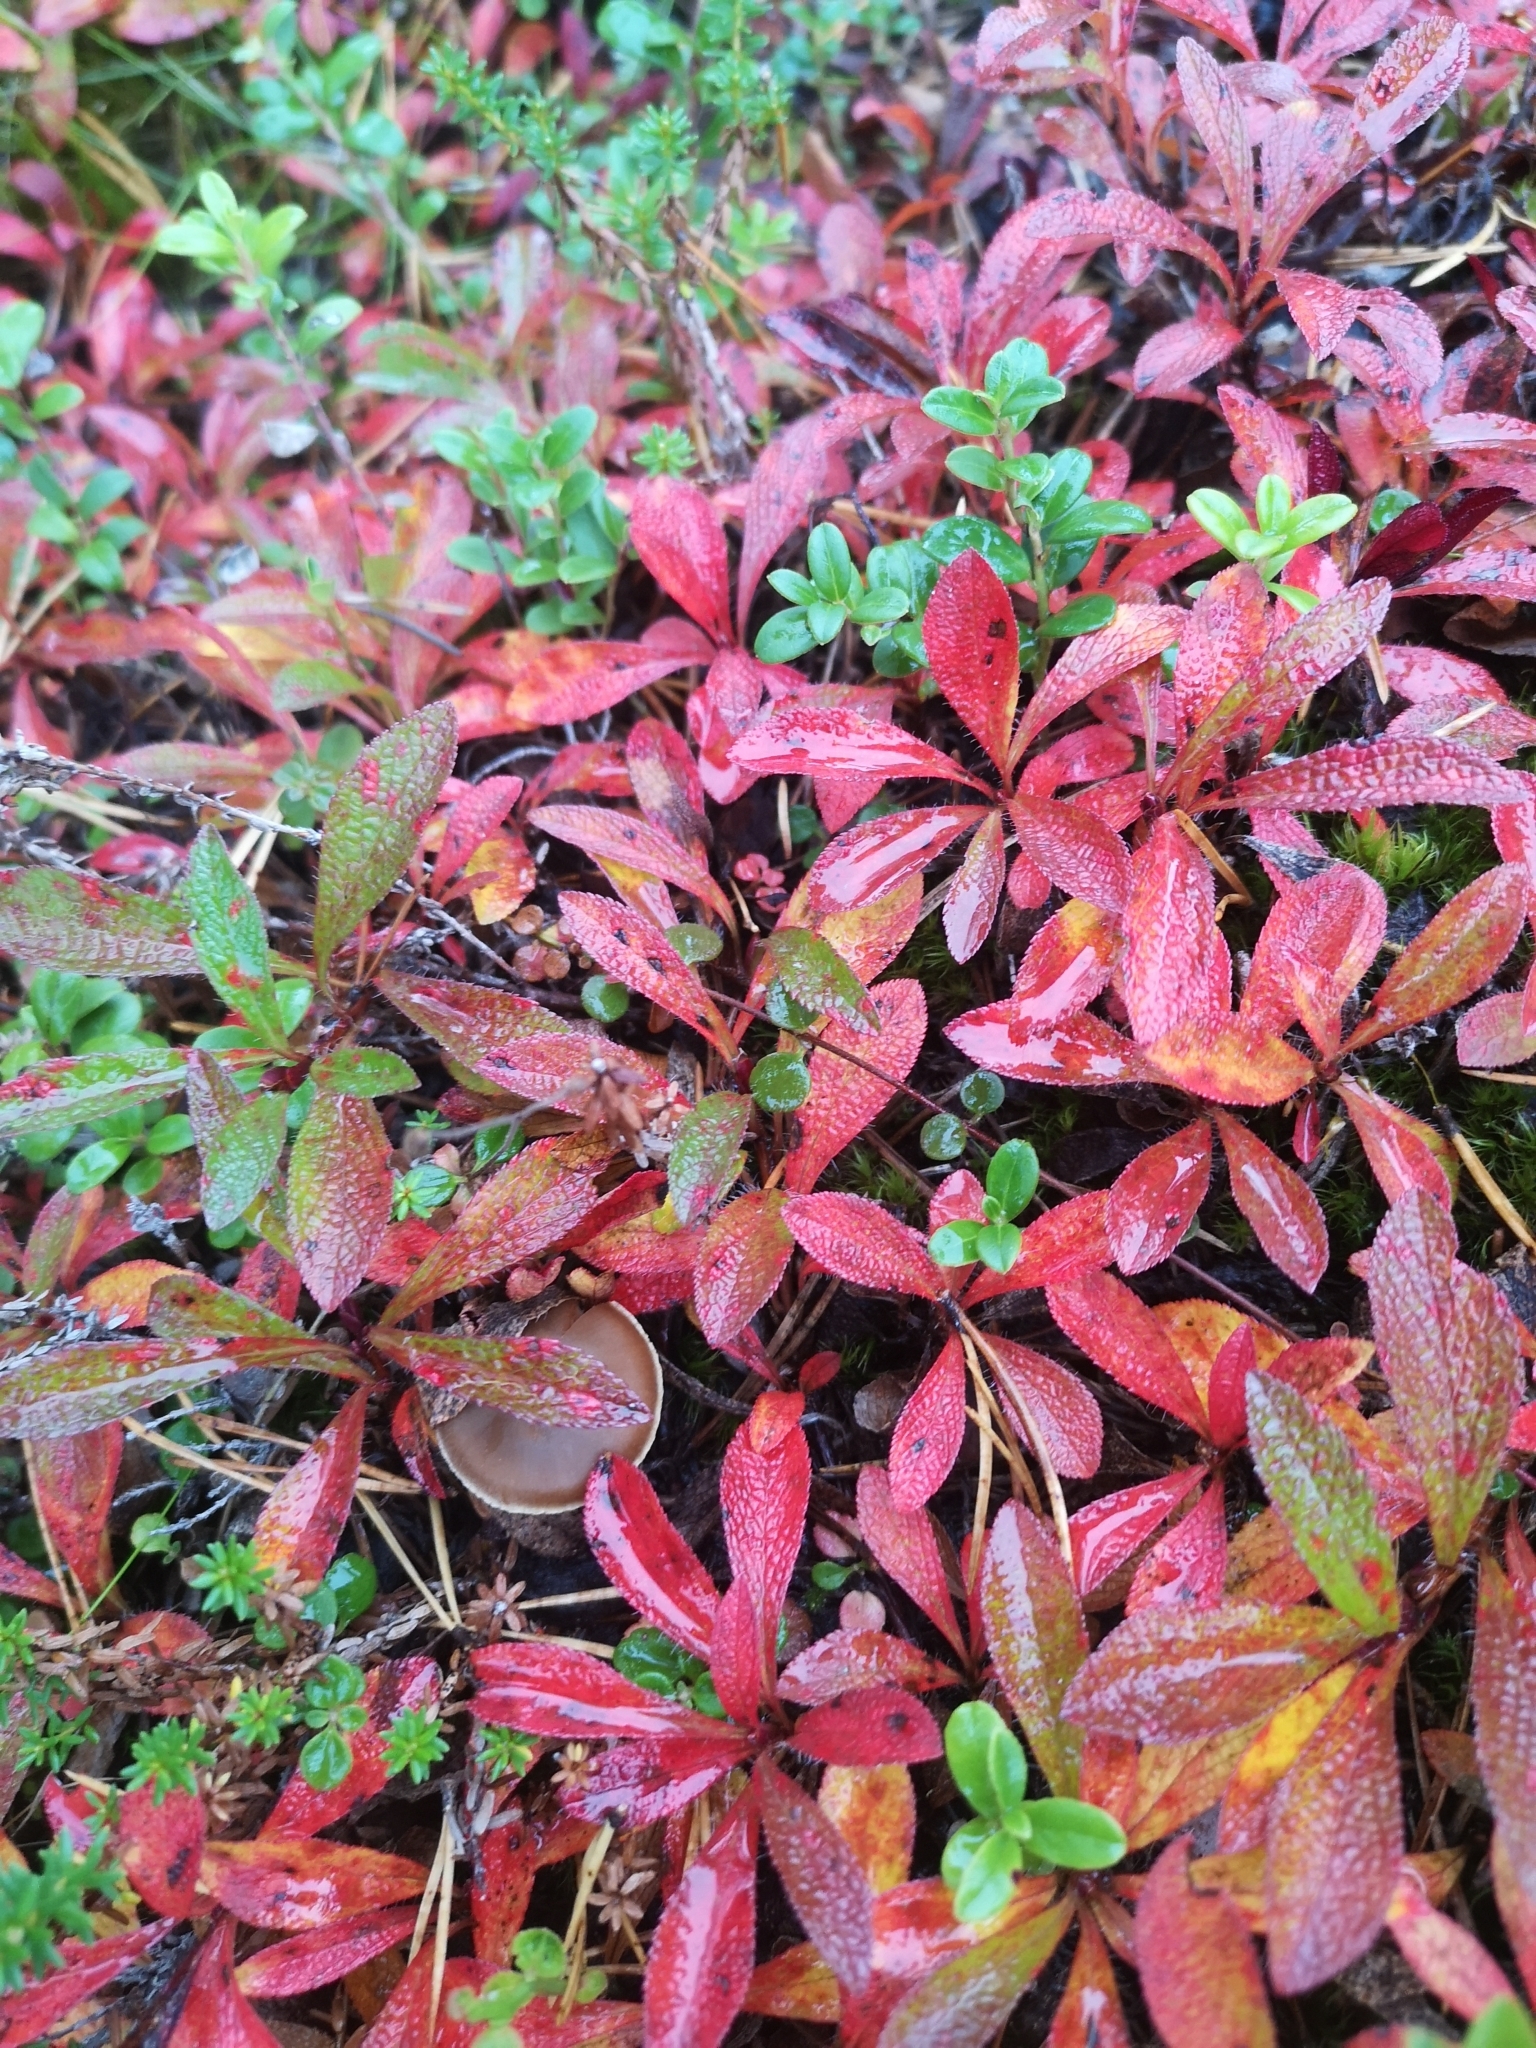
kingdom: Plantae
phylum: Tracheophyta
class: Magnoliopsida
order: Ericales
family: Ericaceae
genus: Arctostaphylos
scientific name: Arctostaphylos alpinus
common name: Alpine bearberry
